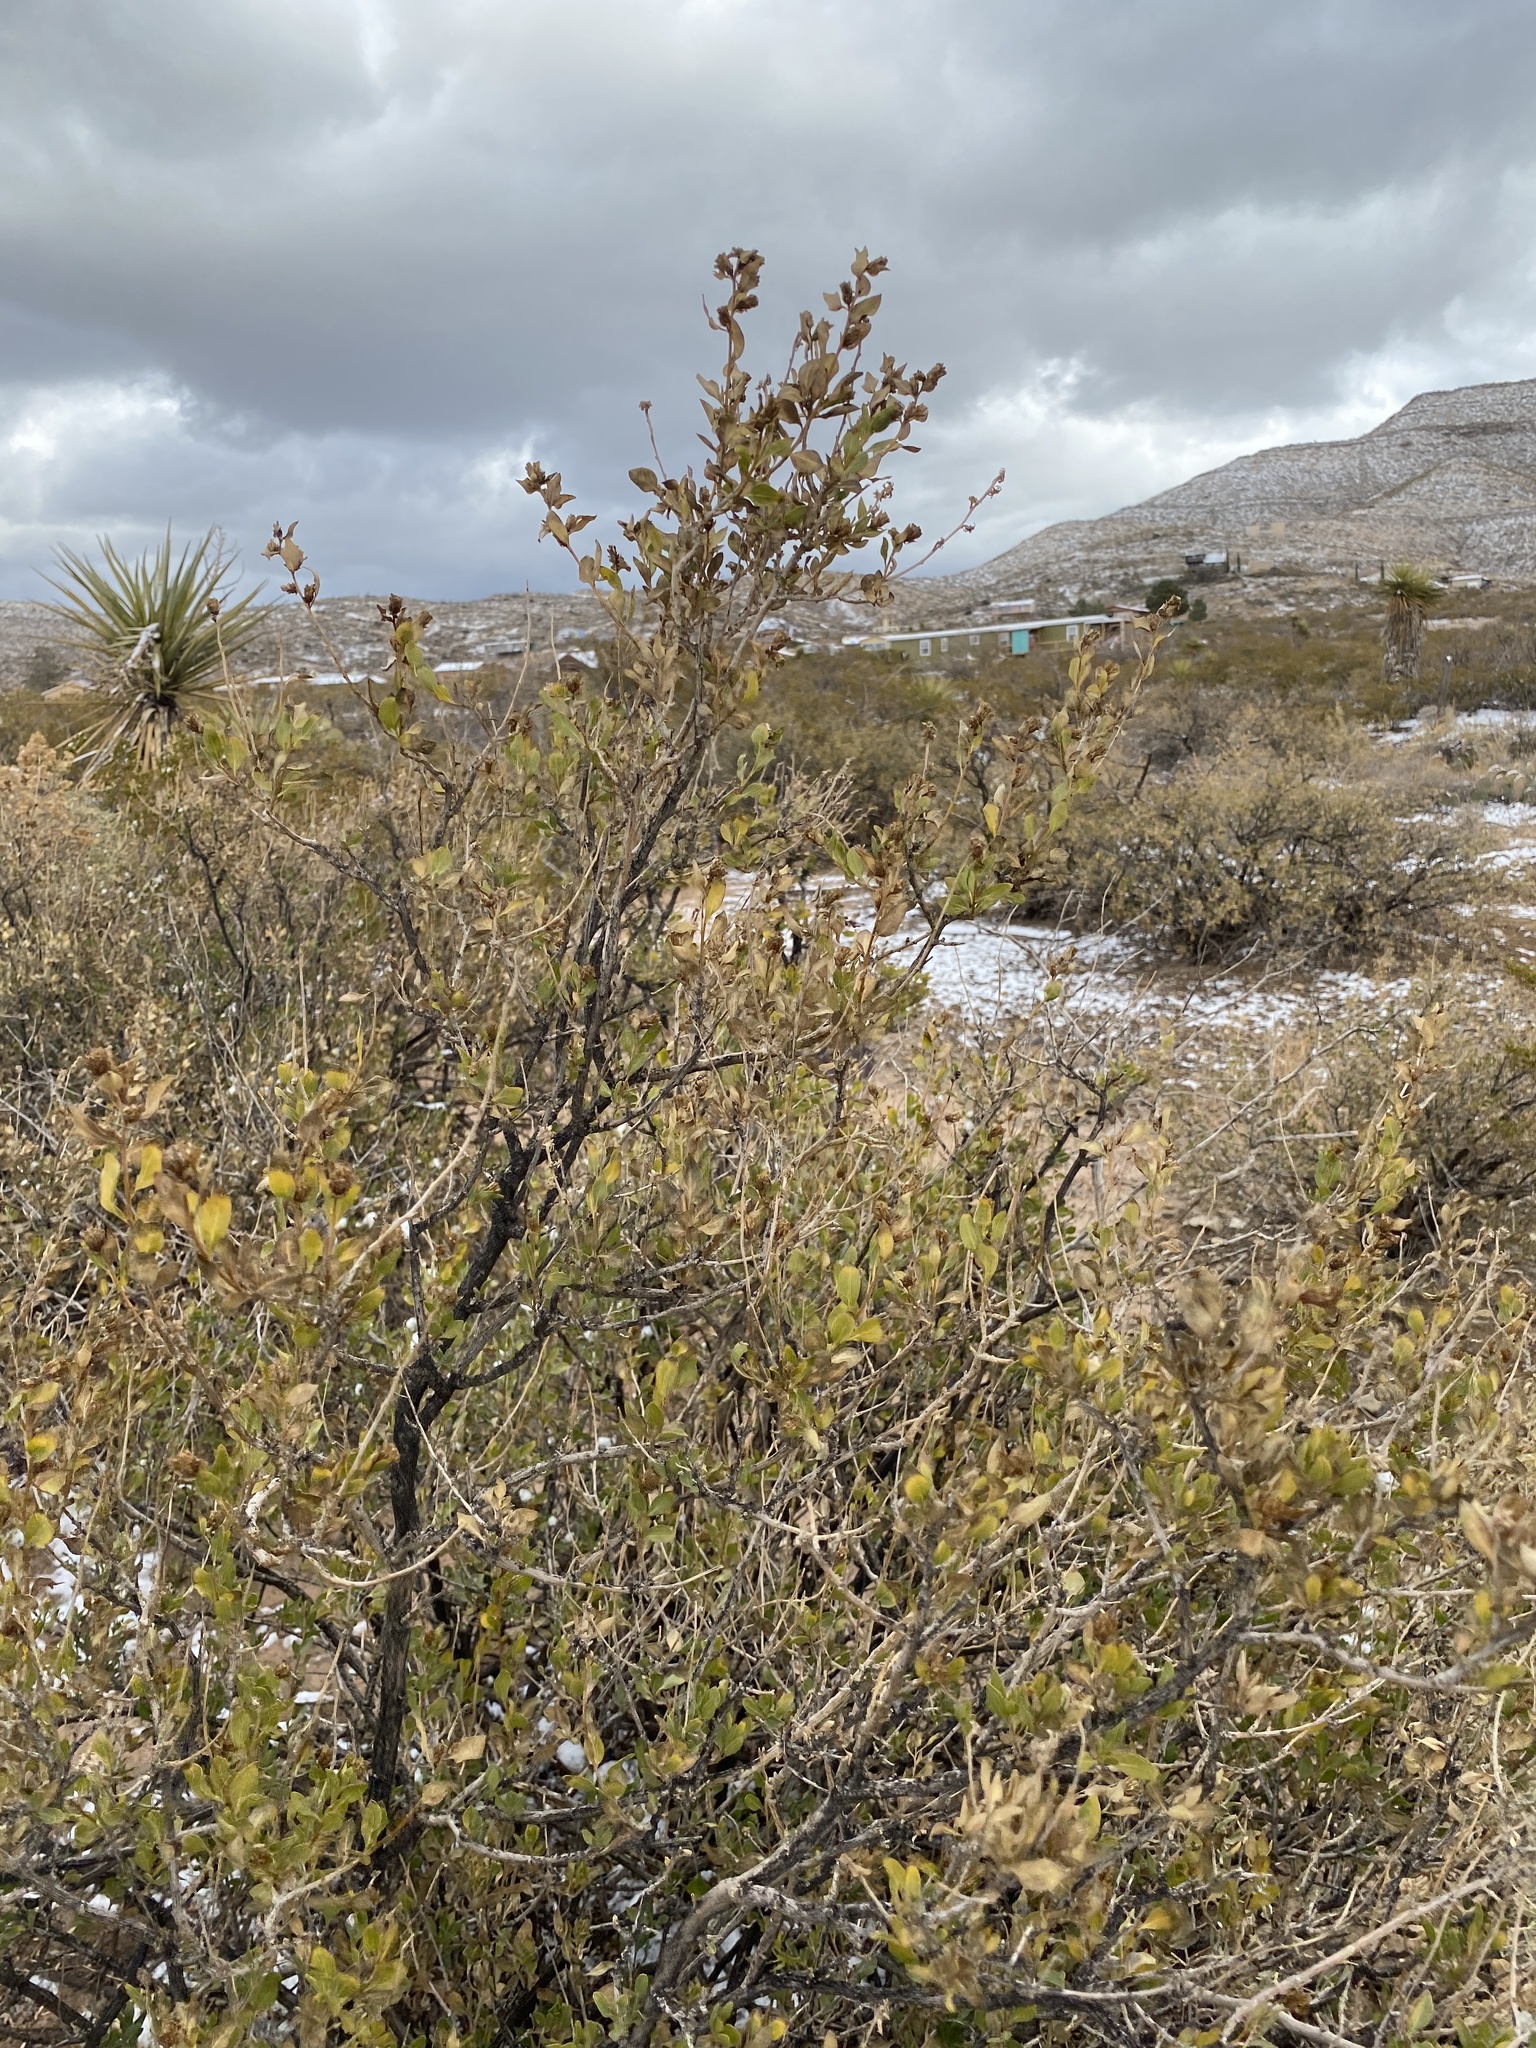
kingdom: Plantae
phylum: Tracheophyta
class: Magnoliopsida
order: Asterales
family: Asteraceae
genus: Flourensia
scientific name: Flourensia cernua
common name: Varnishbush
